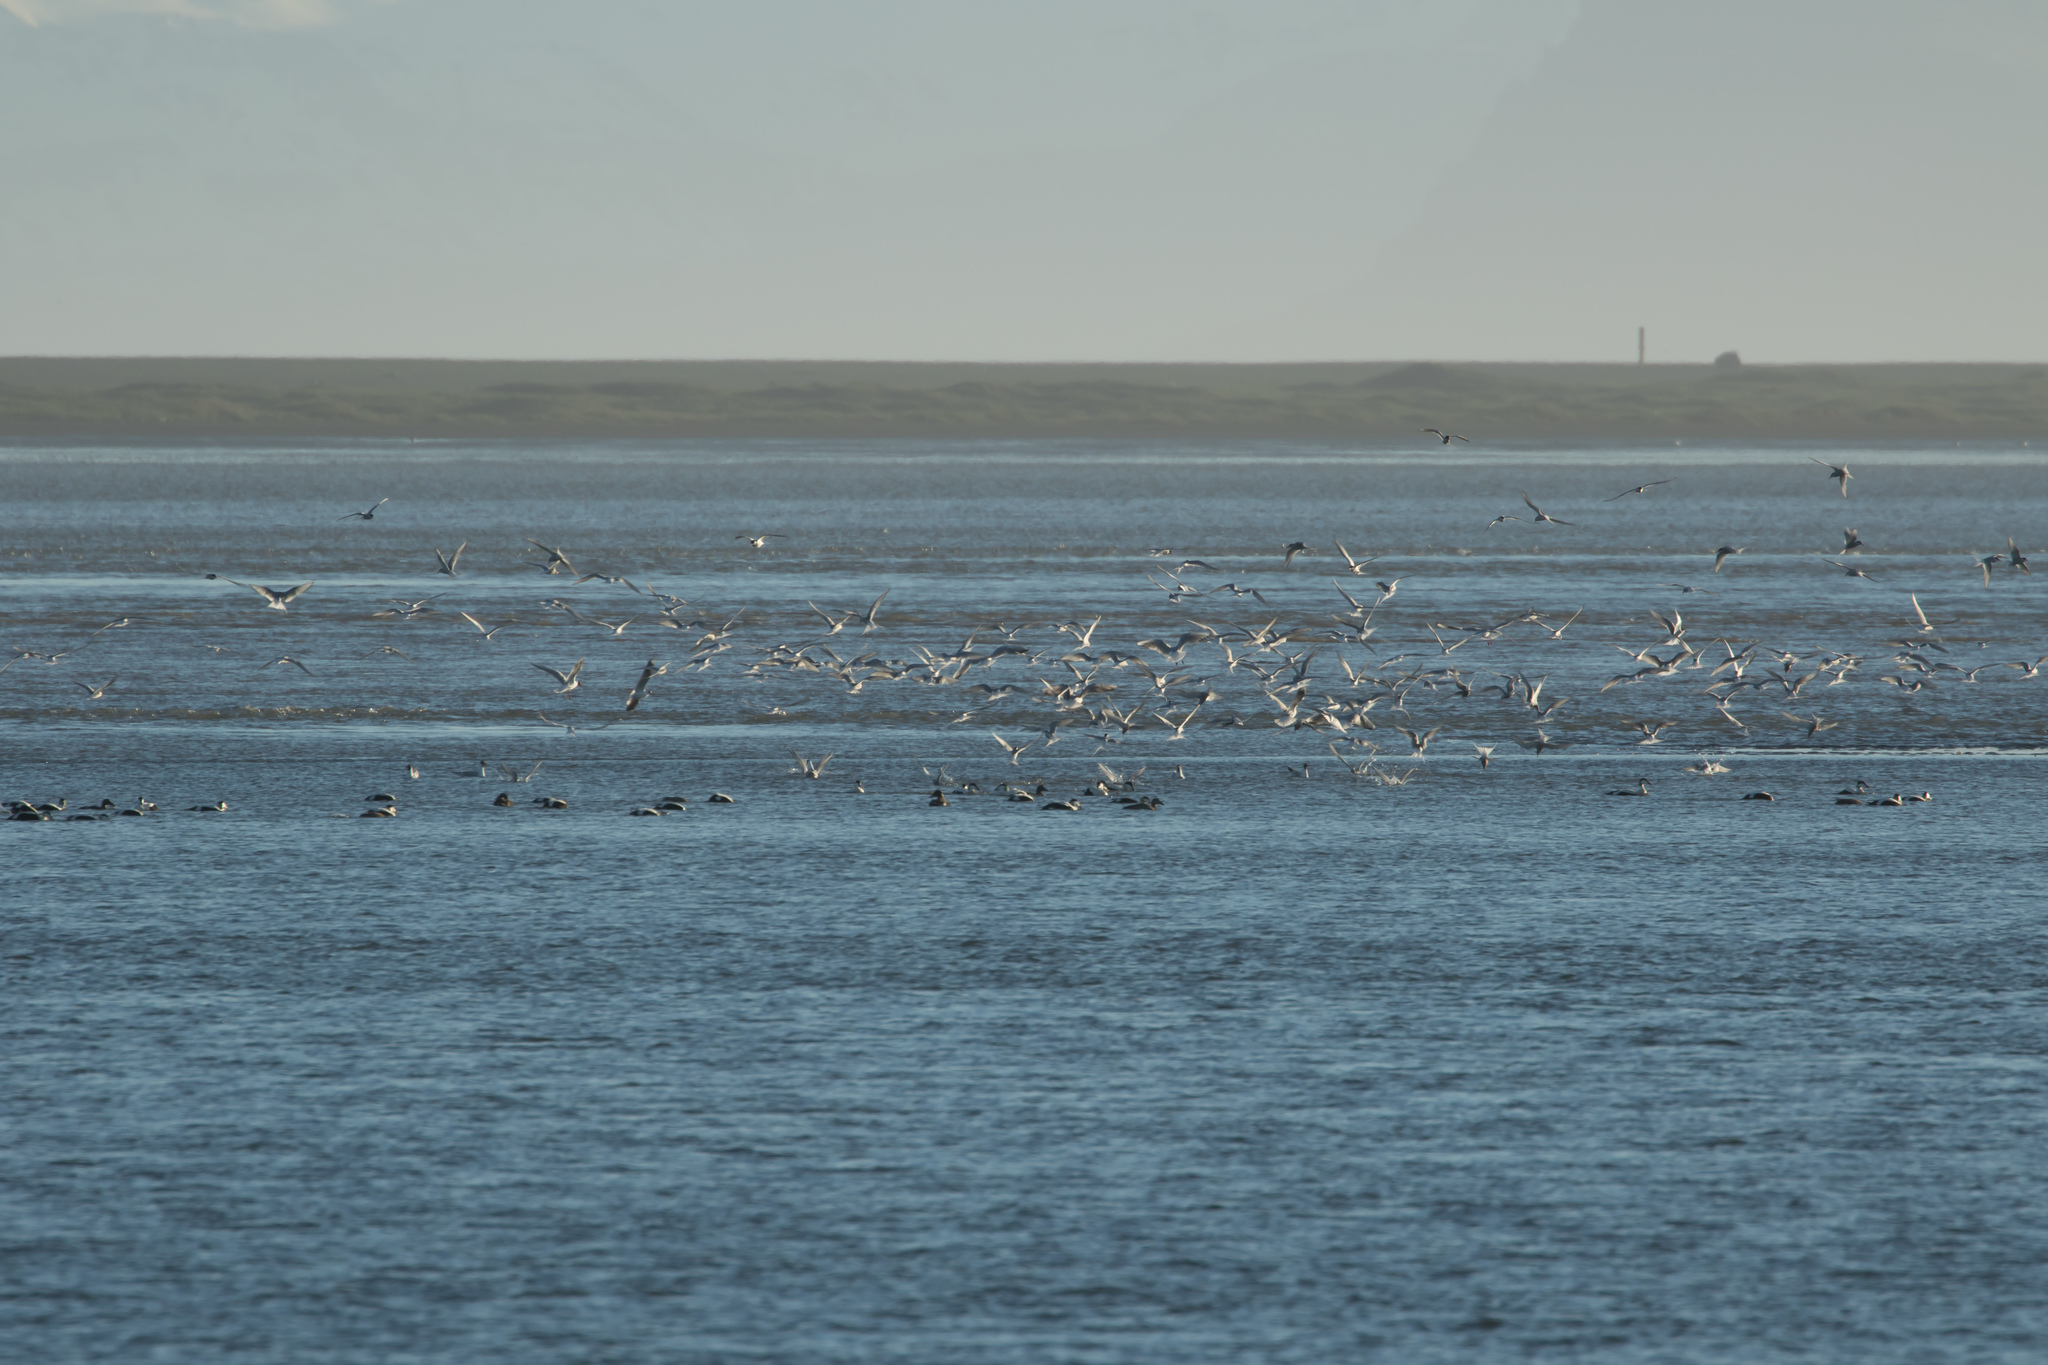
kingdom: Animalia
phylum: Chordata
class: Aves
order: Anseriformes
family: Anatidae
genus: Somateria
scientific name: Somateria mollissima
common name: Common eider
